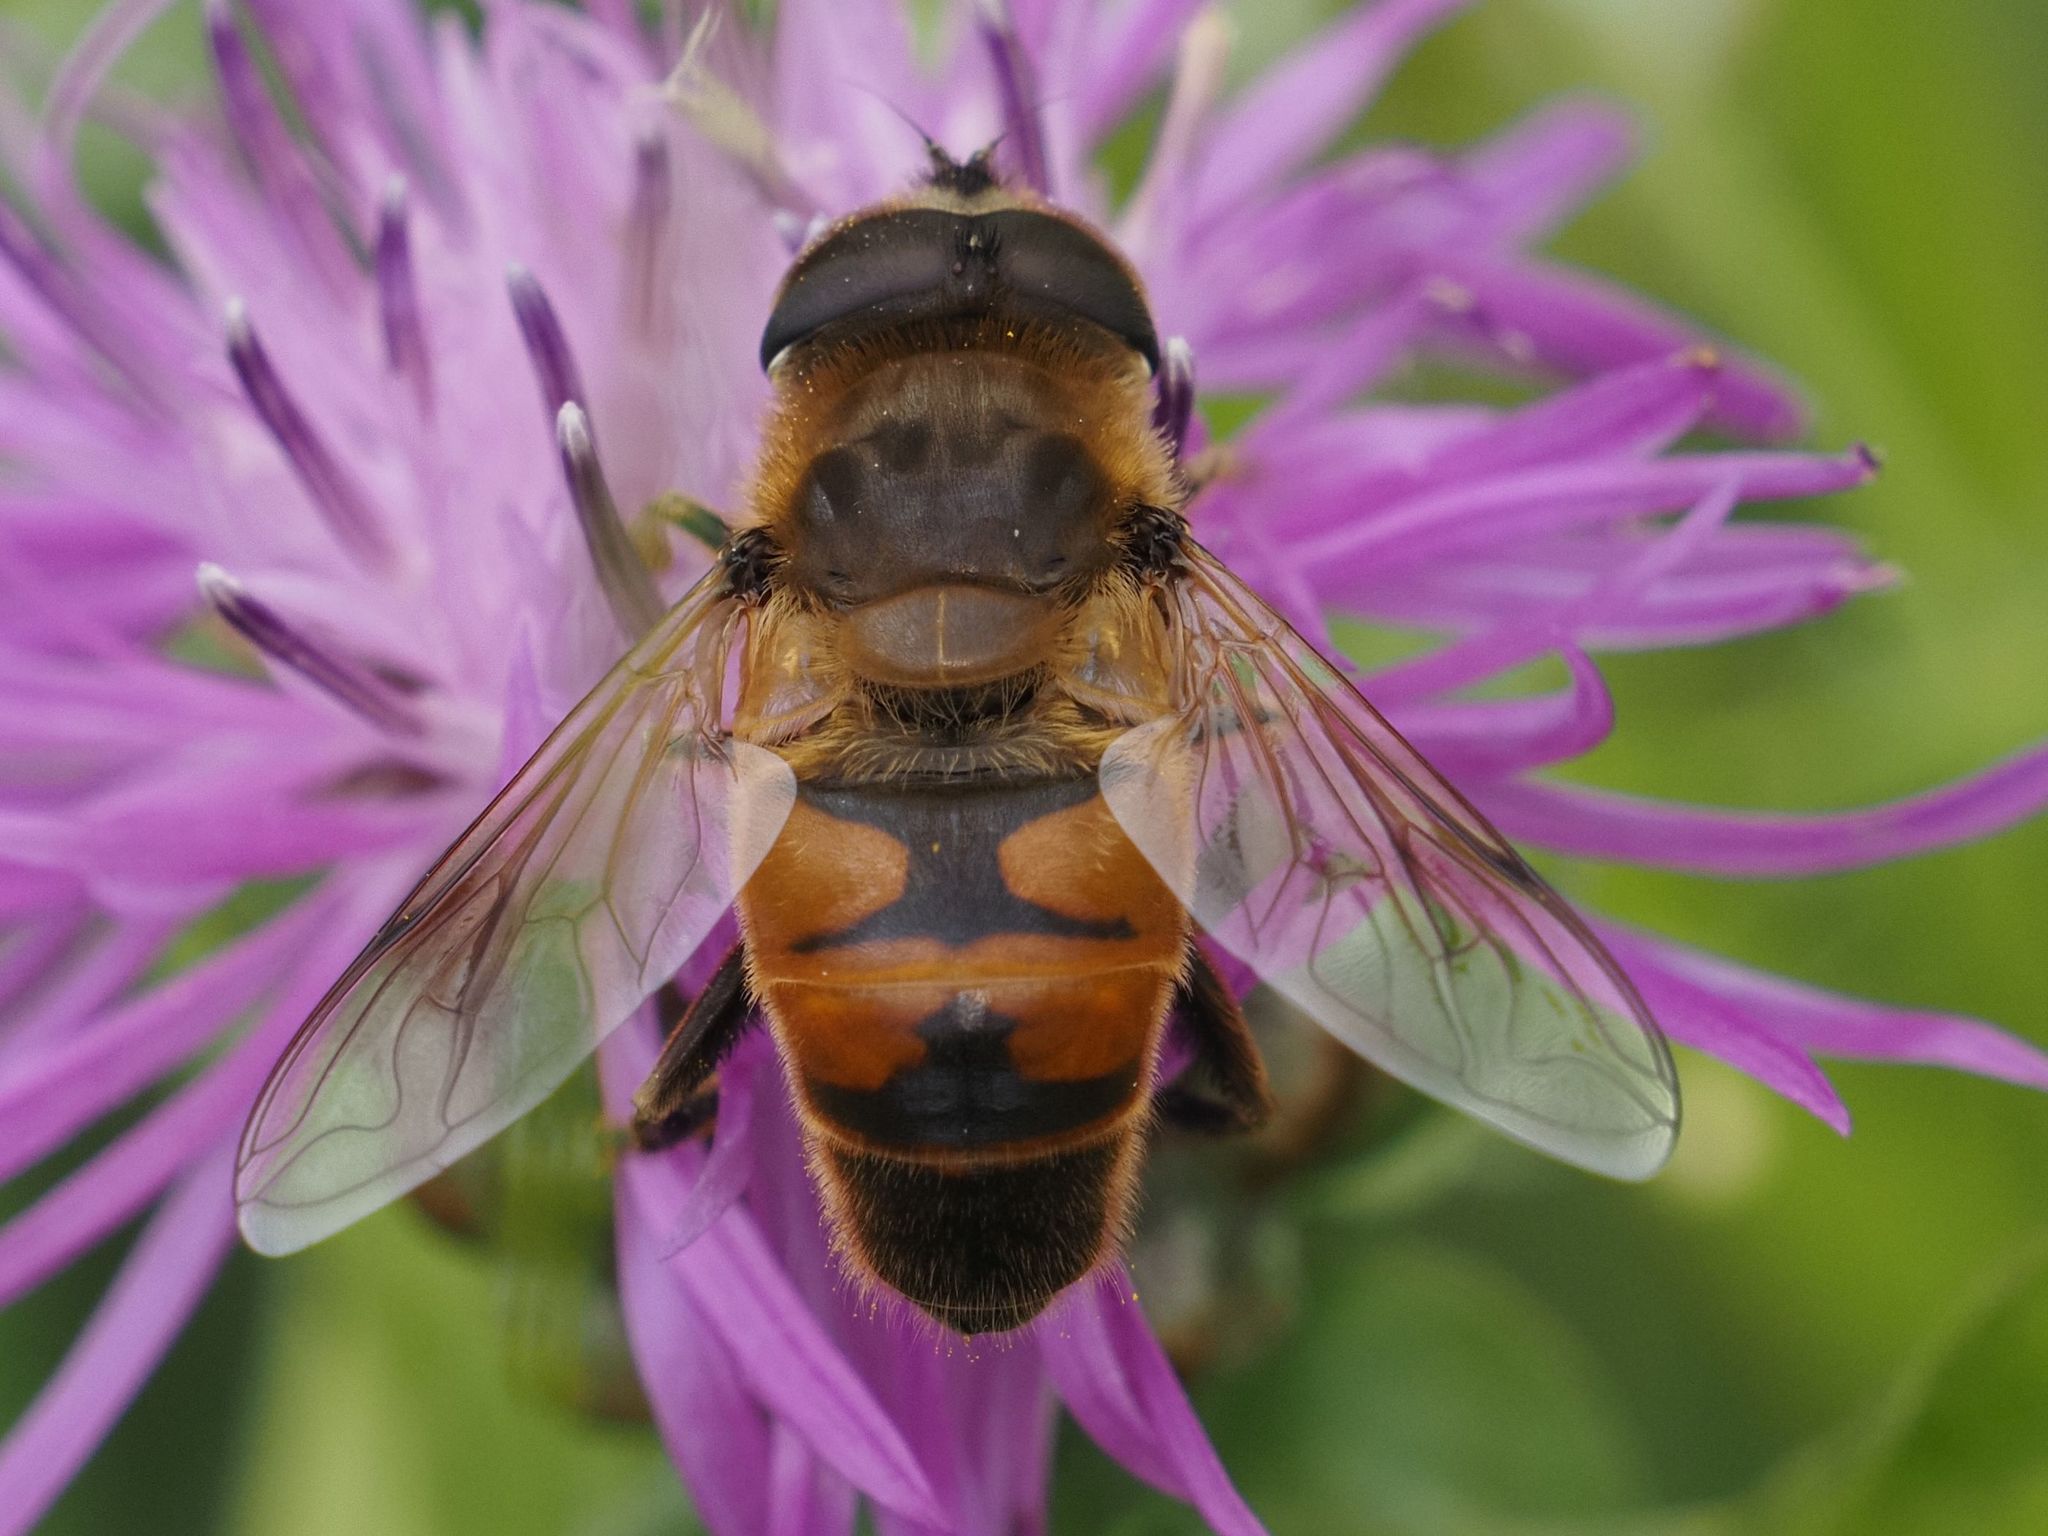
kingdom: Animalia
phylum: Arthropoda
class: Insecta
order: Diptera
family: Syrphidae
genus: Eristalis
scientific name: Eristalis tenax
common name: Drone fly
